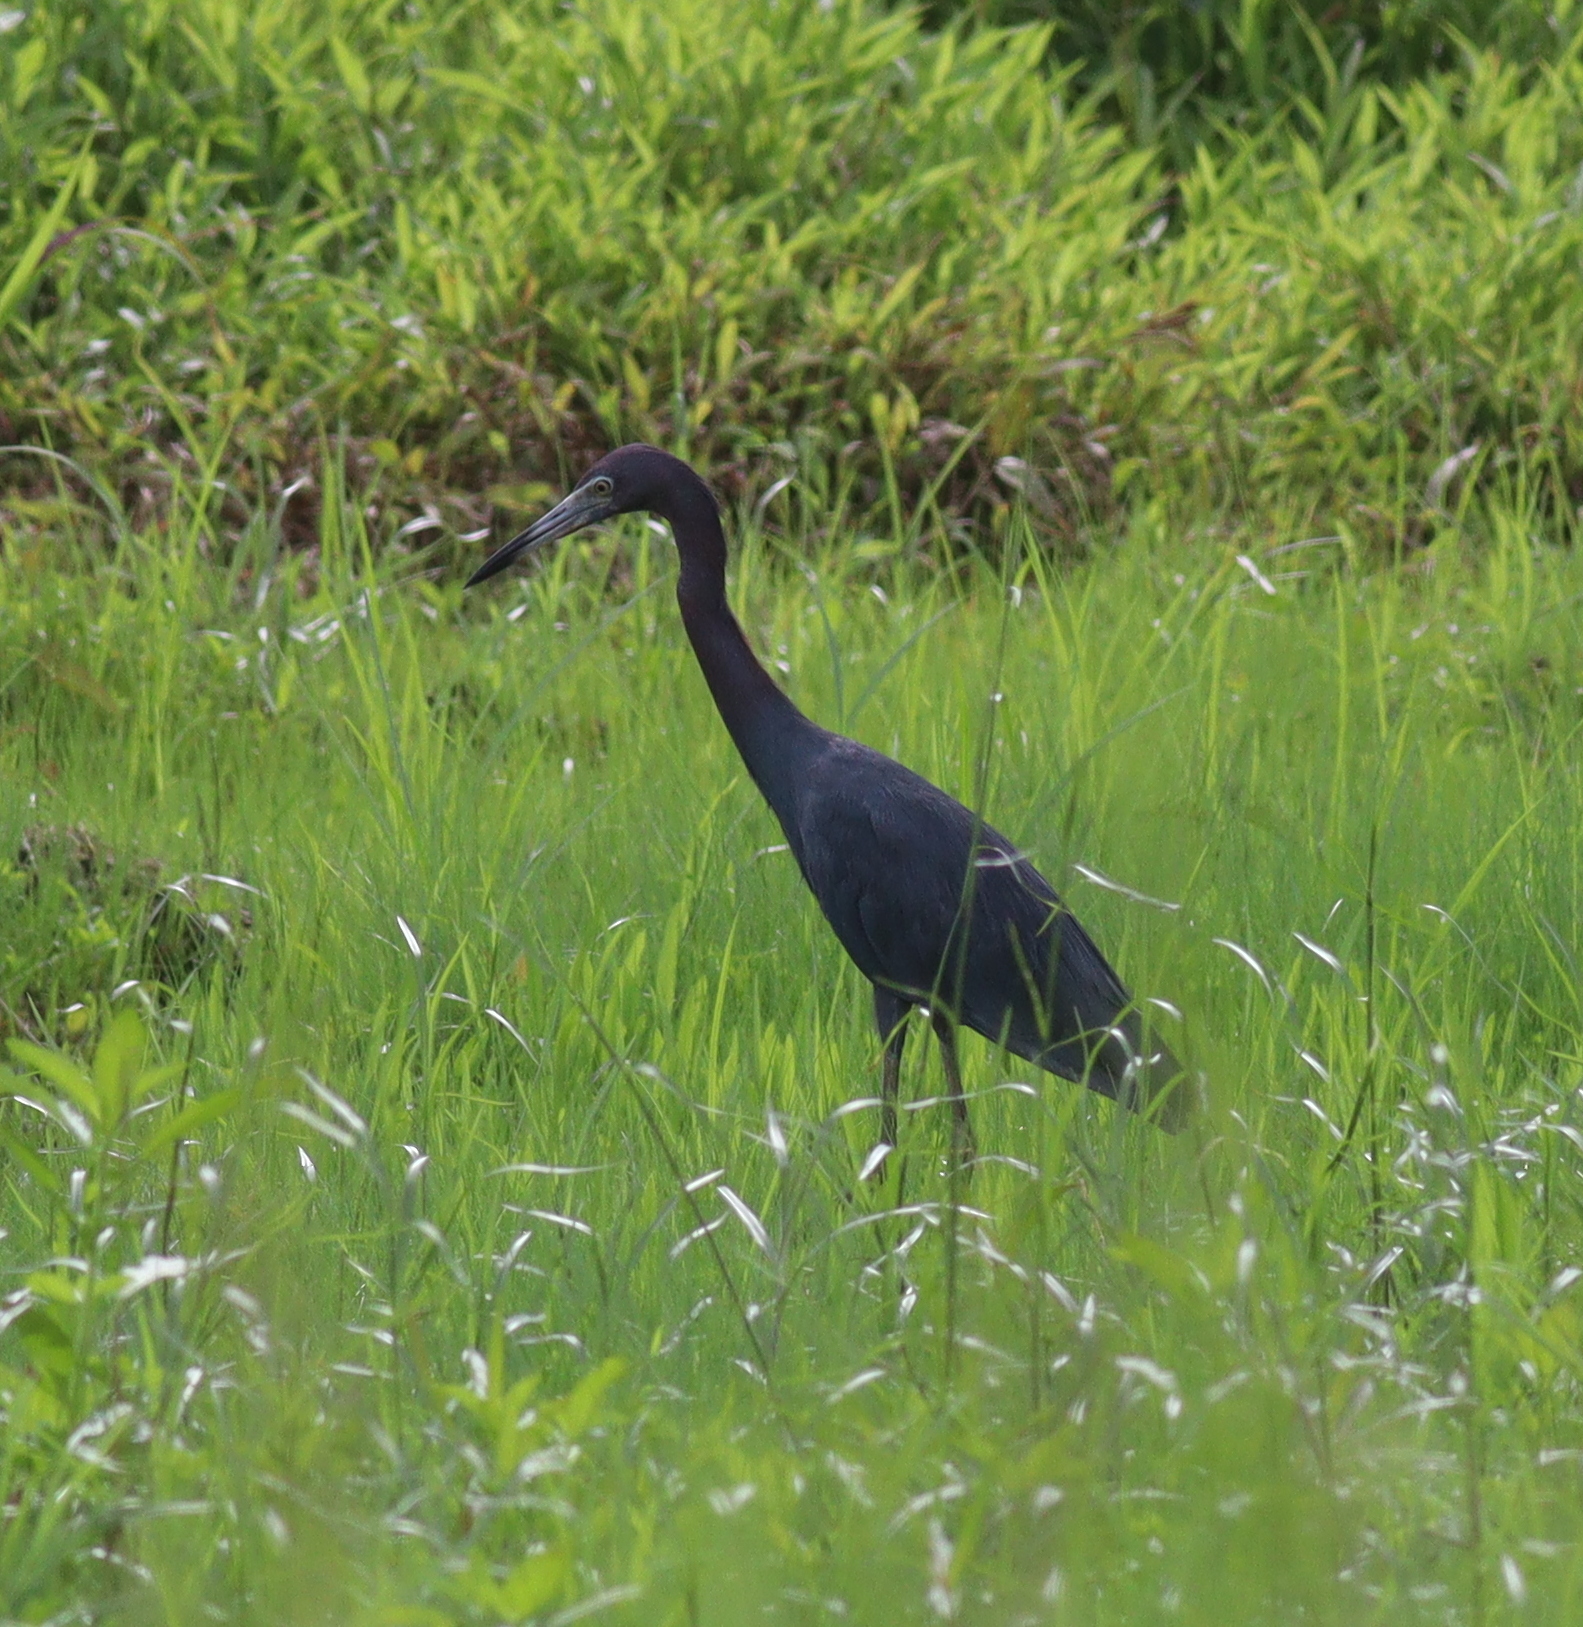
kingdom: Animalia
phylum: Chordata
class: Aves
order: Pelecaniformes
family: Ardeidae
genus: Egretta
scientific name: Egretta caerulea
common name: Little blue heron
